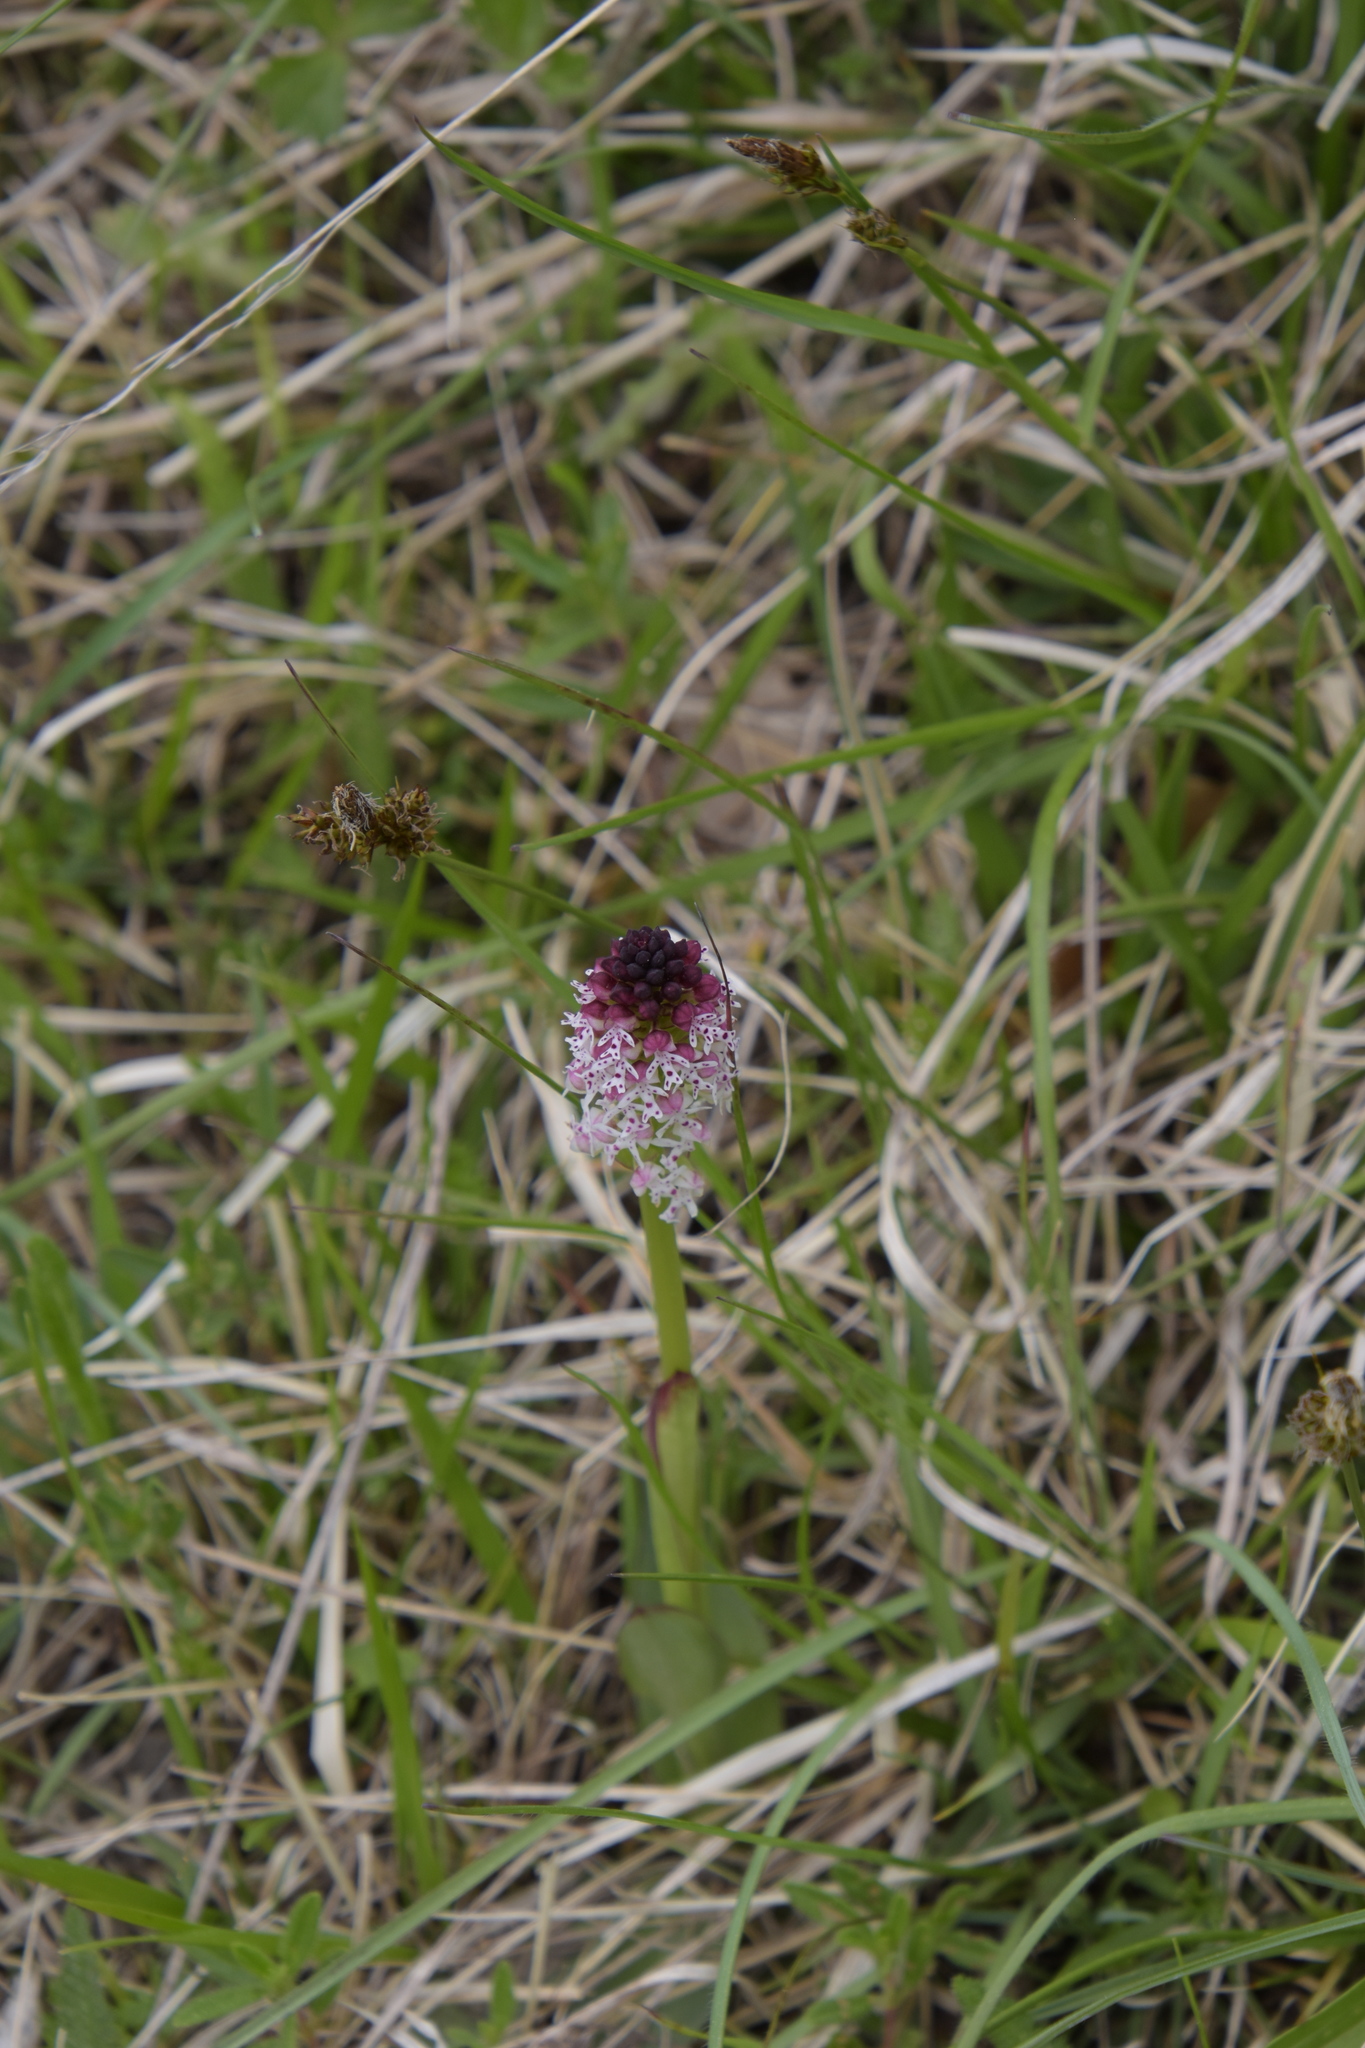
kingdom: Plantae
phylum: Tracheophyta
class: Liliopsida
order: Asparagales
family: Orchidaceae
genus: Neotinea
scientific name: Neotinea ustulata
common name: Burnt orchid
